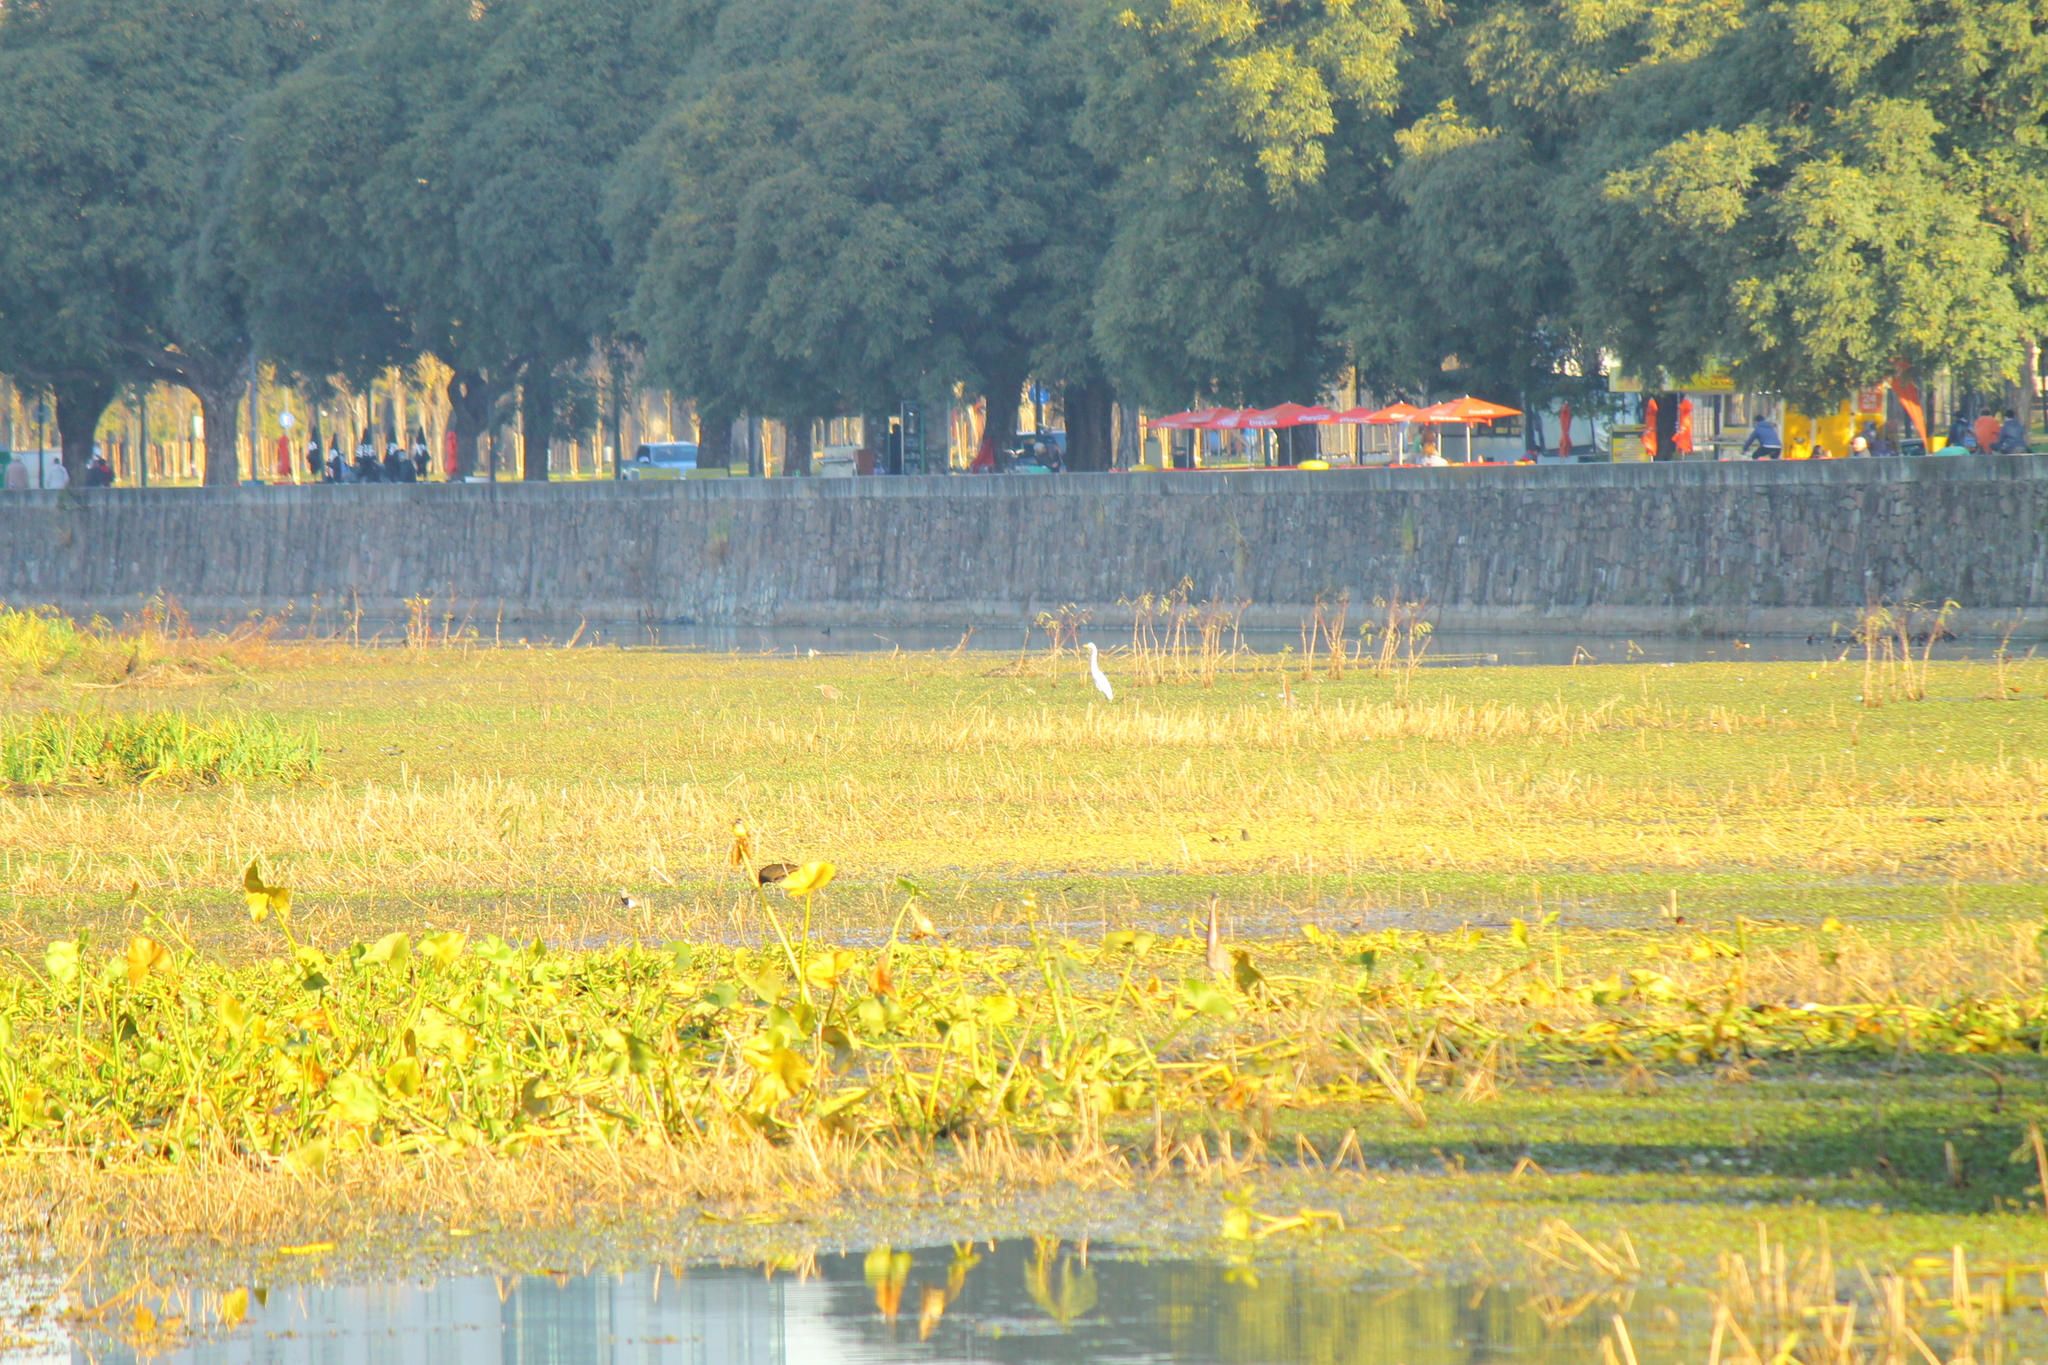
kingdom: Animalia
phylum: Chordata
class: Aves
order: Pelecaniformes
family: Ardeidae
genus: Ardea
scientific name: Ardea alba
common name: Great egret
